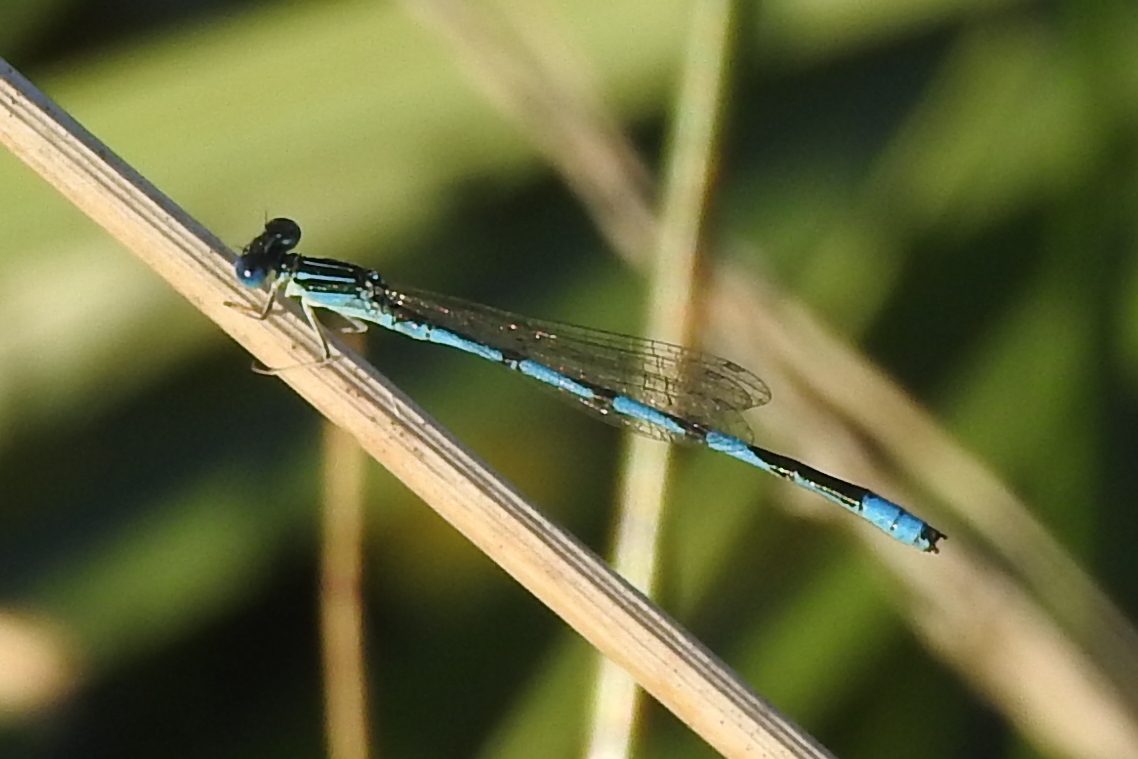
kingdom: Animalia
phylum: Arthropoda
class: Insecta
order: Odonata
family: Coenagrionidae
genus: Enallagma
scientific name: Enallagma basidens
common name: Double-striped bluet
